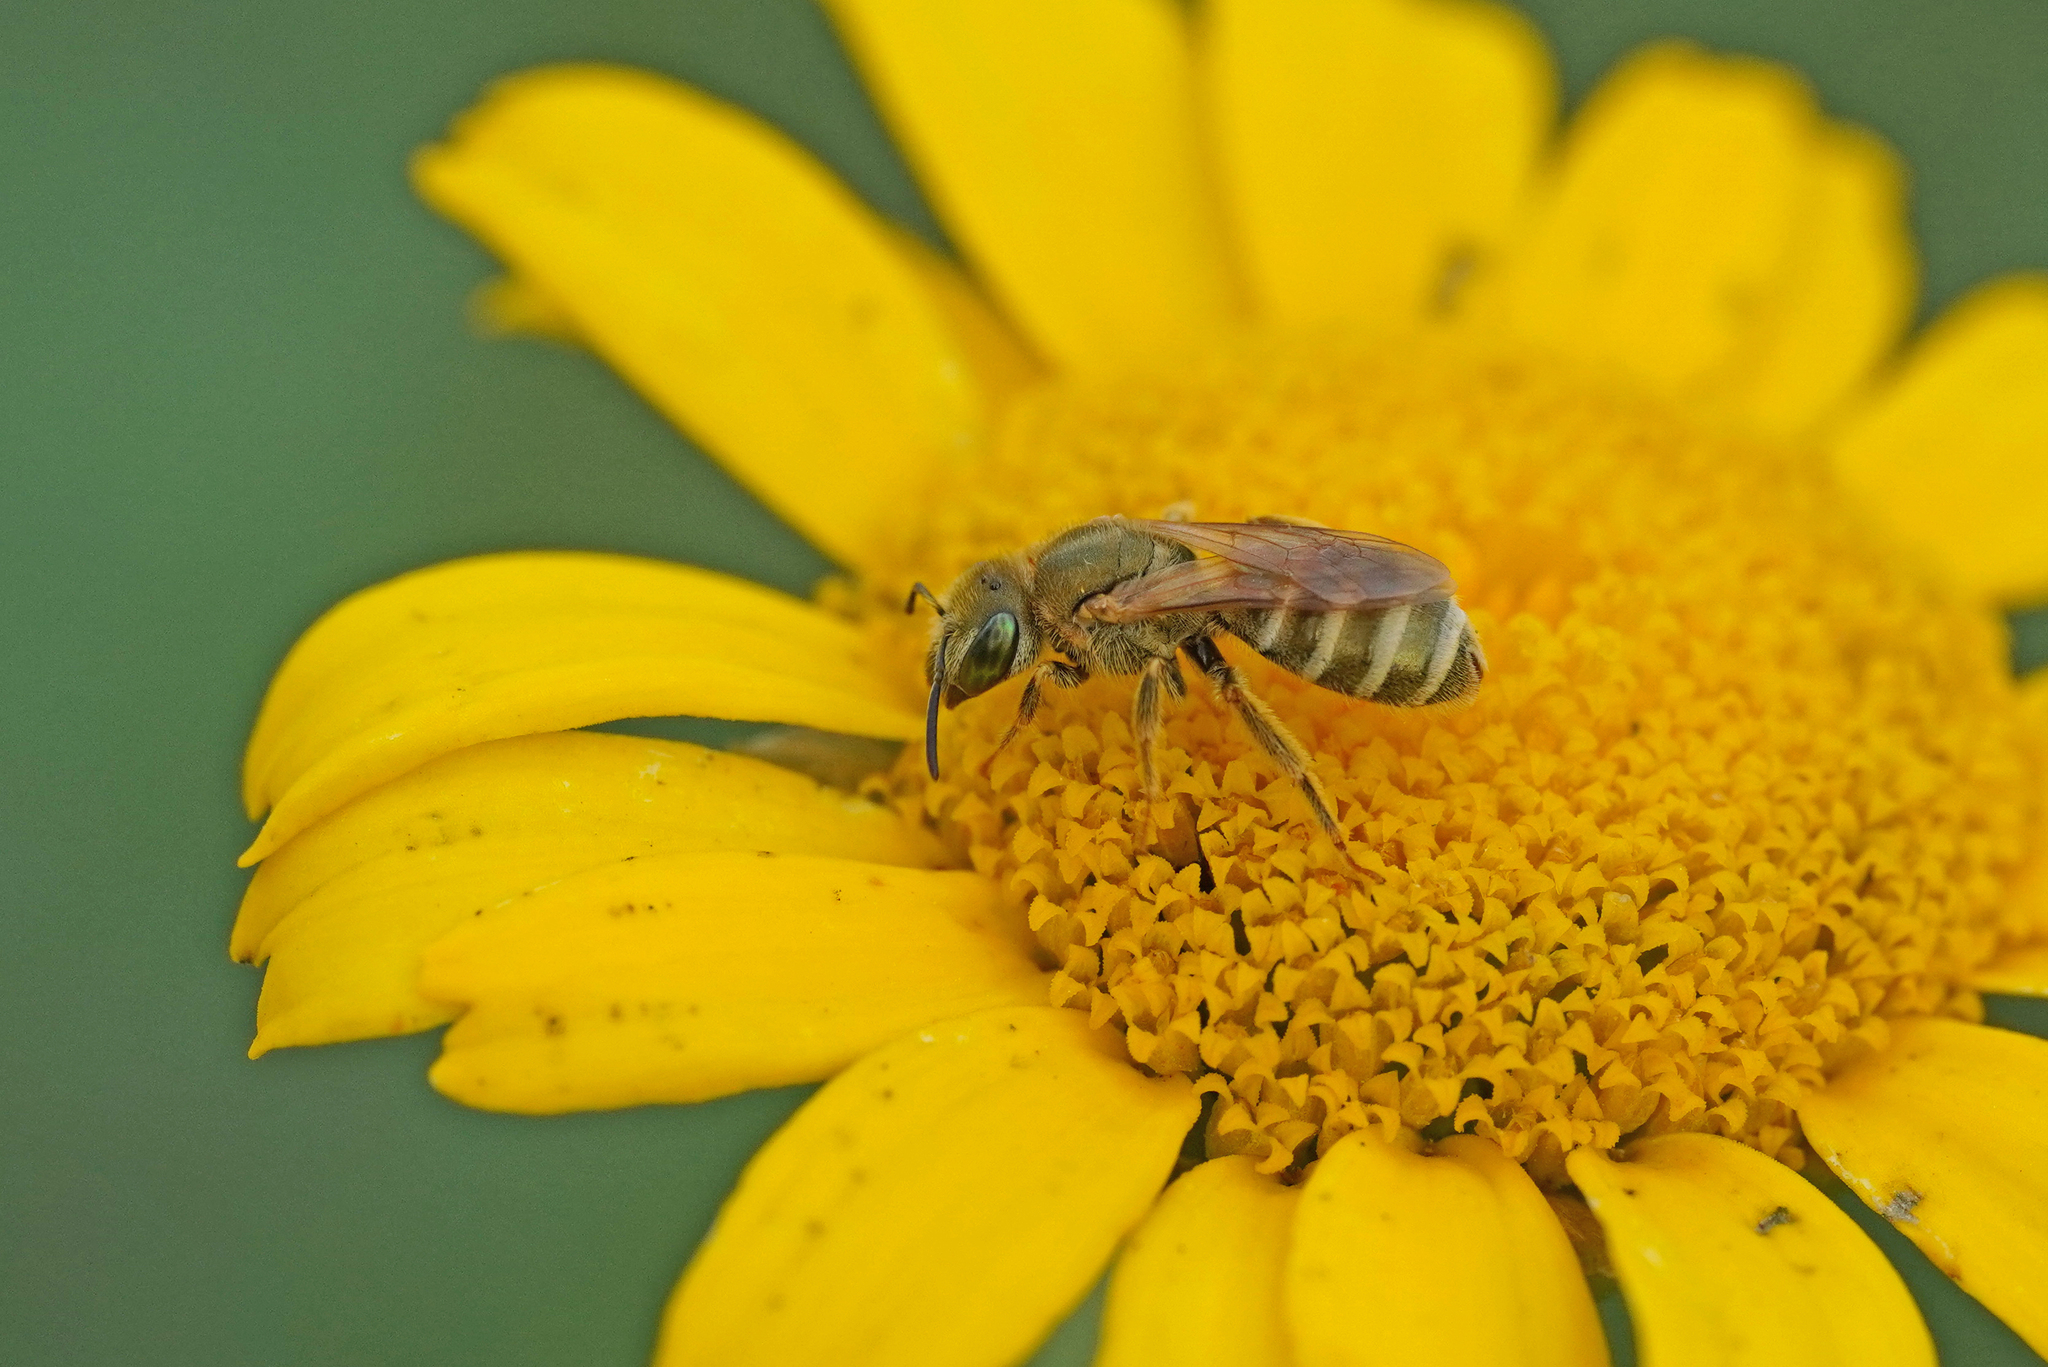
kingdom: Animalia
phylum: Arthropoda
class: Insecta
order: Hymenoptera
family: Halictidae
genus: Halictus
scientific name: Halictus subauratus
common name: Golden furrow bee
